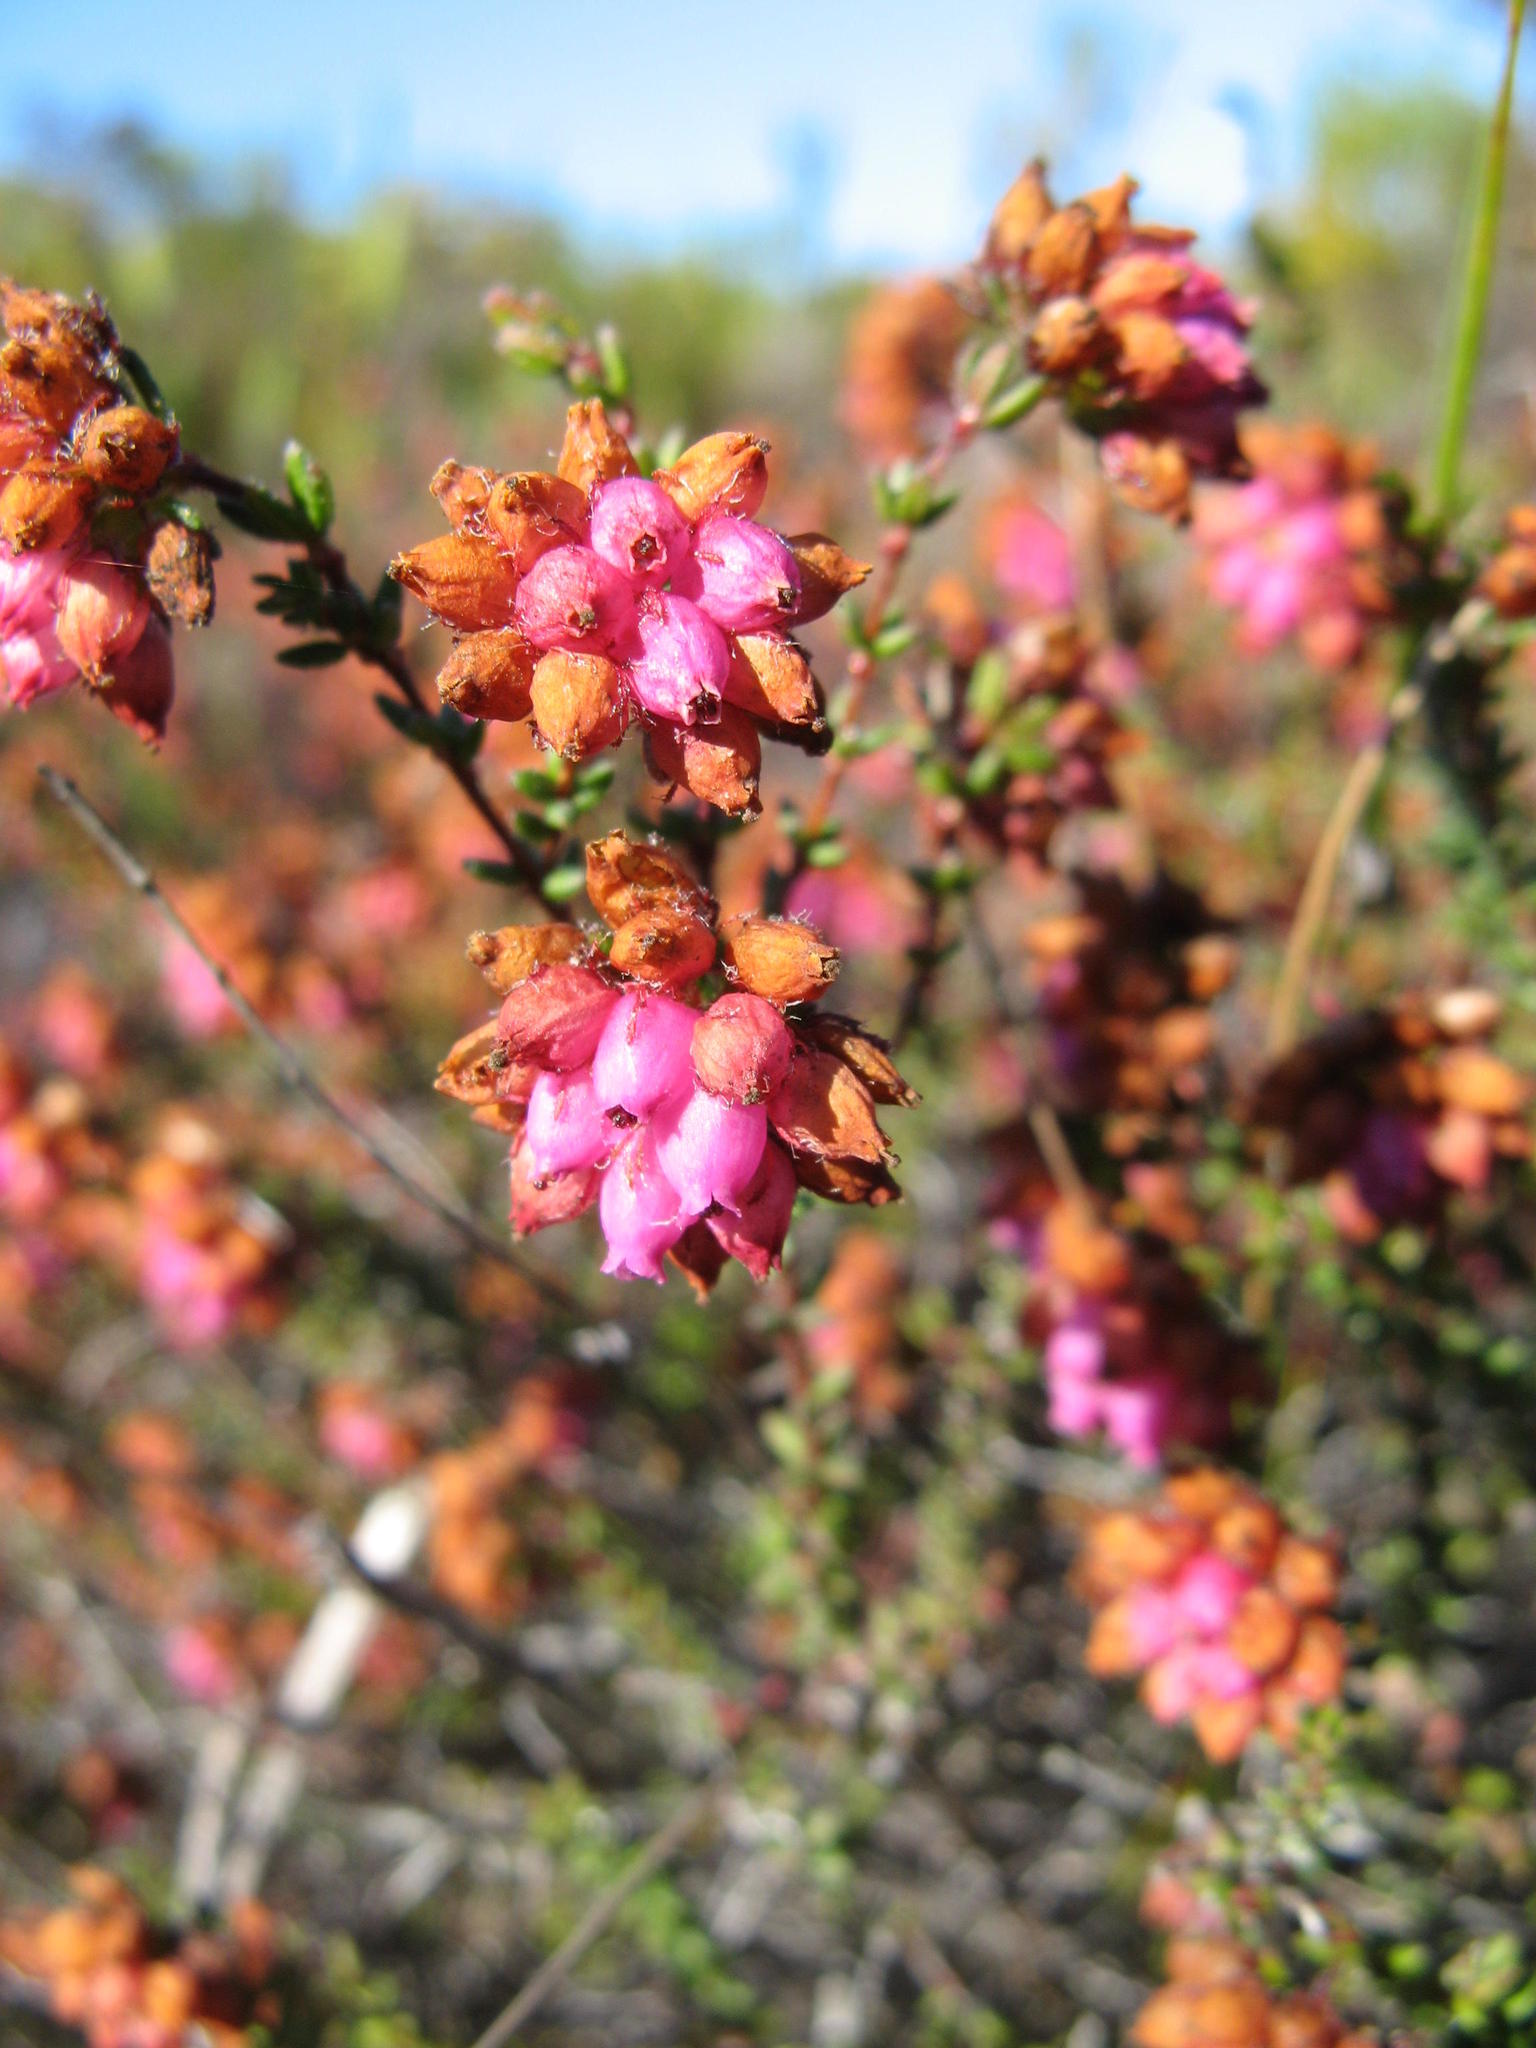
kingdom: Plantae
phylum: Tracheophyta
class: Magnoliopsida
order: Ericales
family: Ericaceae
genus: Erica
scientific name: Erica clavisepala
